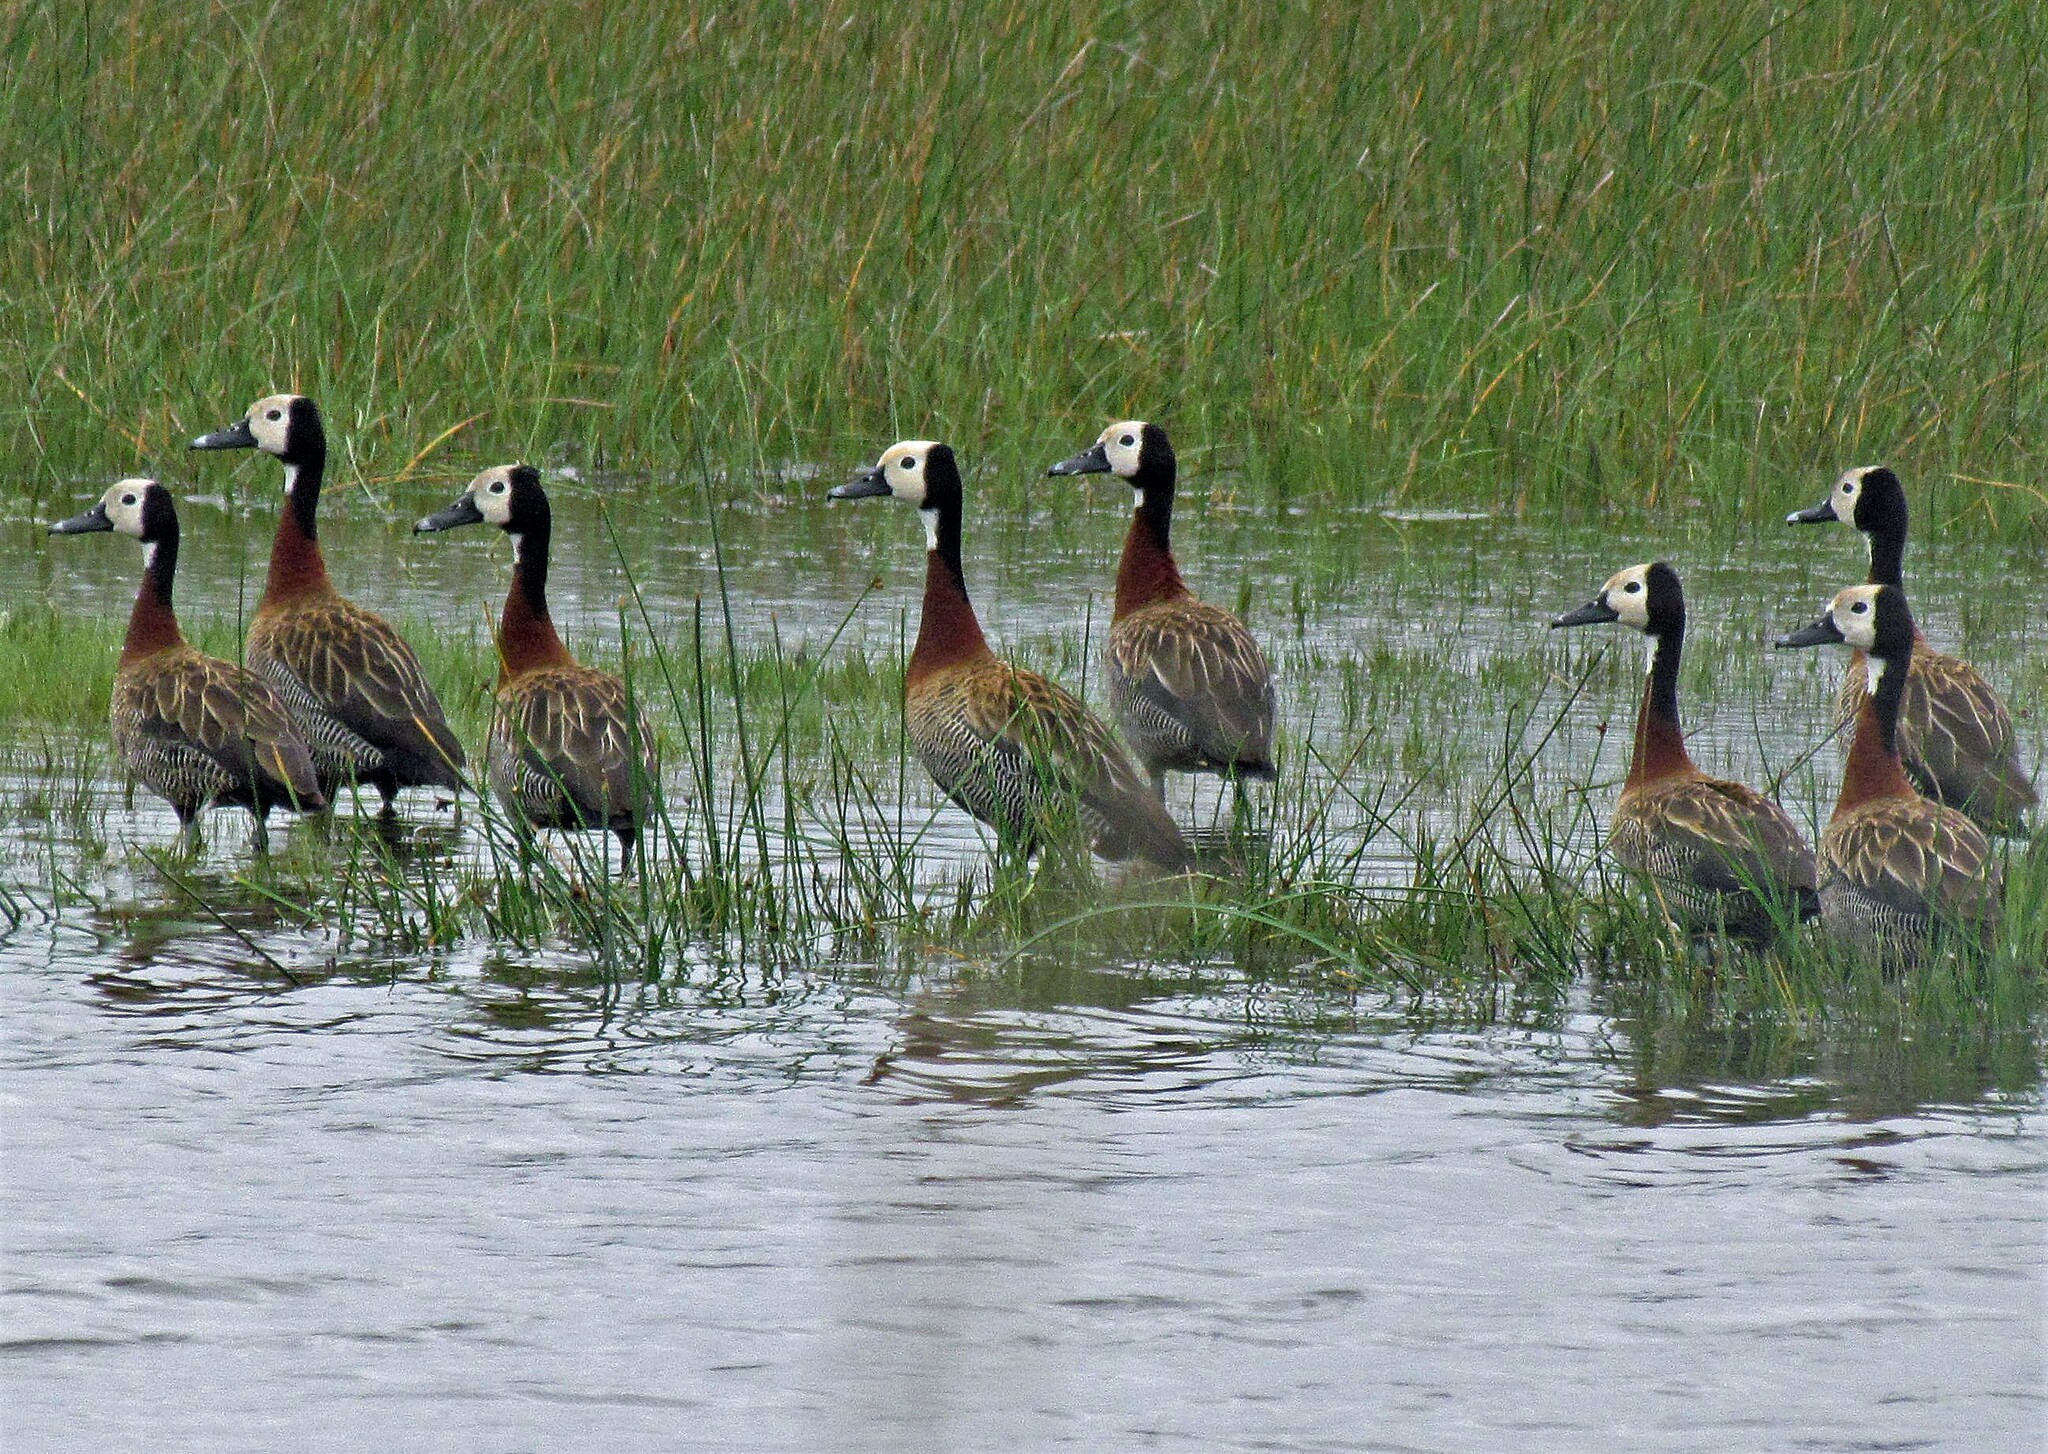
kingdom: Animalia
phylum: Chordata
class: Aves
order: Anseriformes
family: Anatidae
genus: Dendrocygna
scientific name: Dendrocygna viduata
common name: White-faced whistling duck
